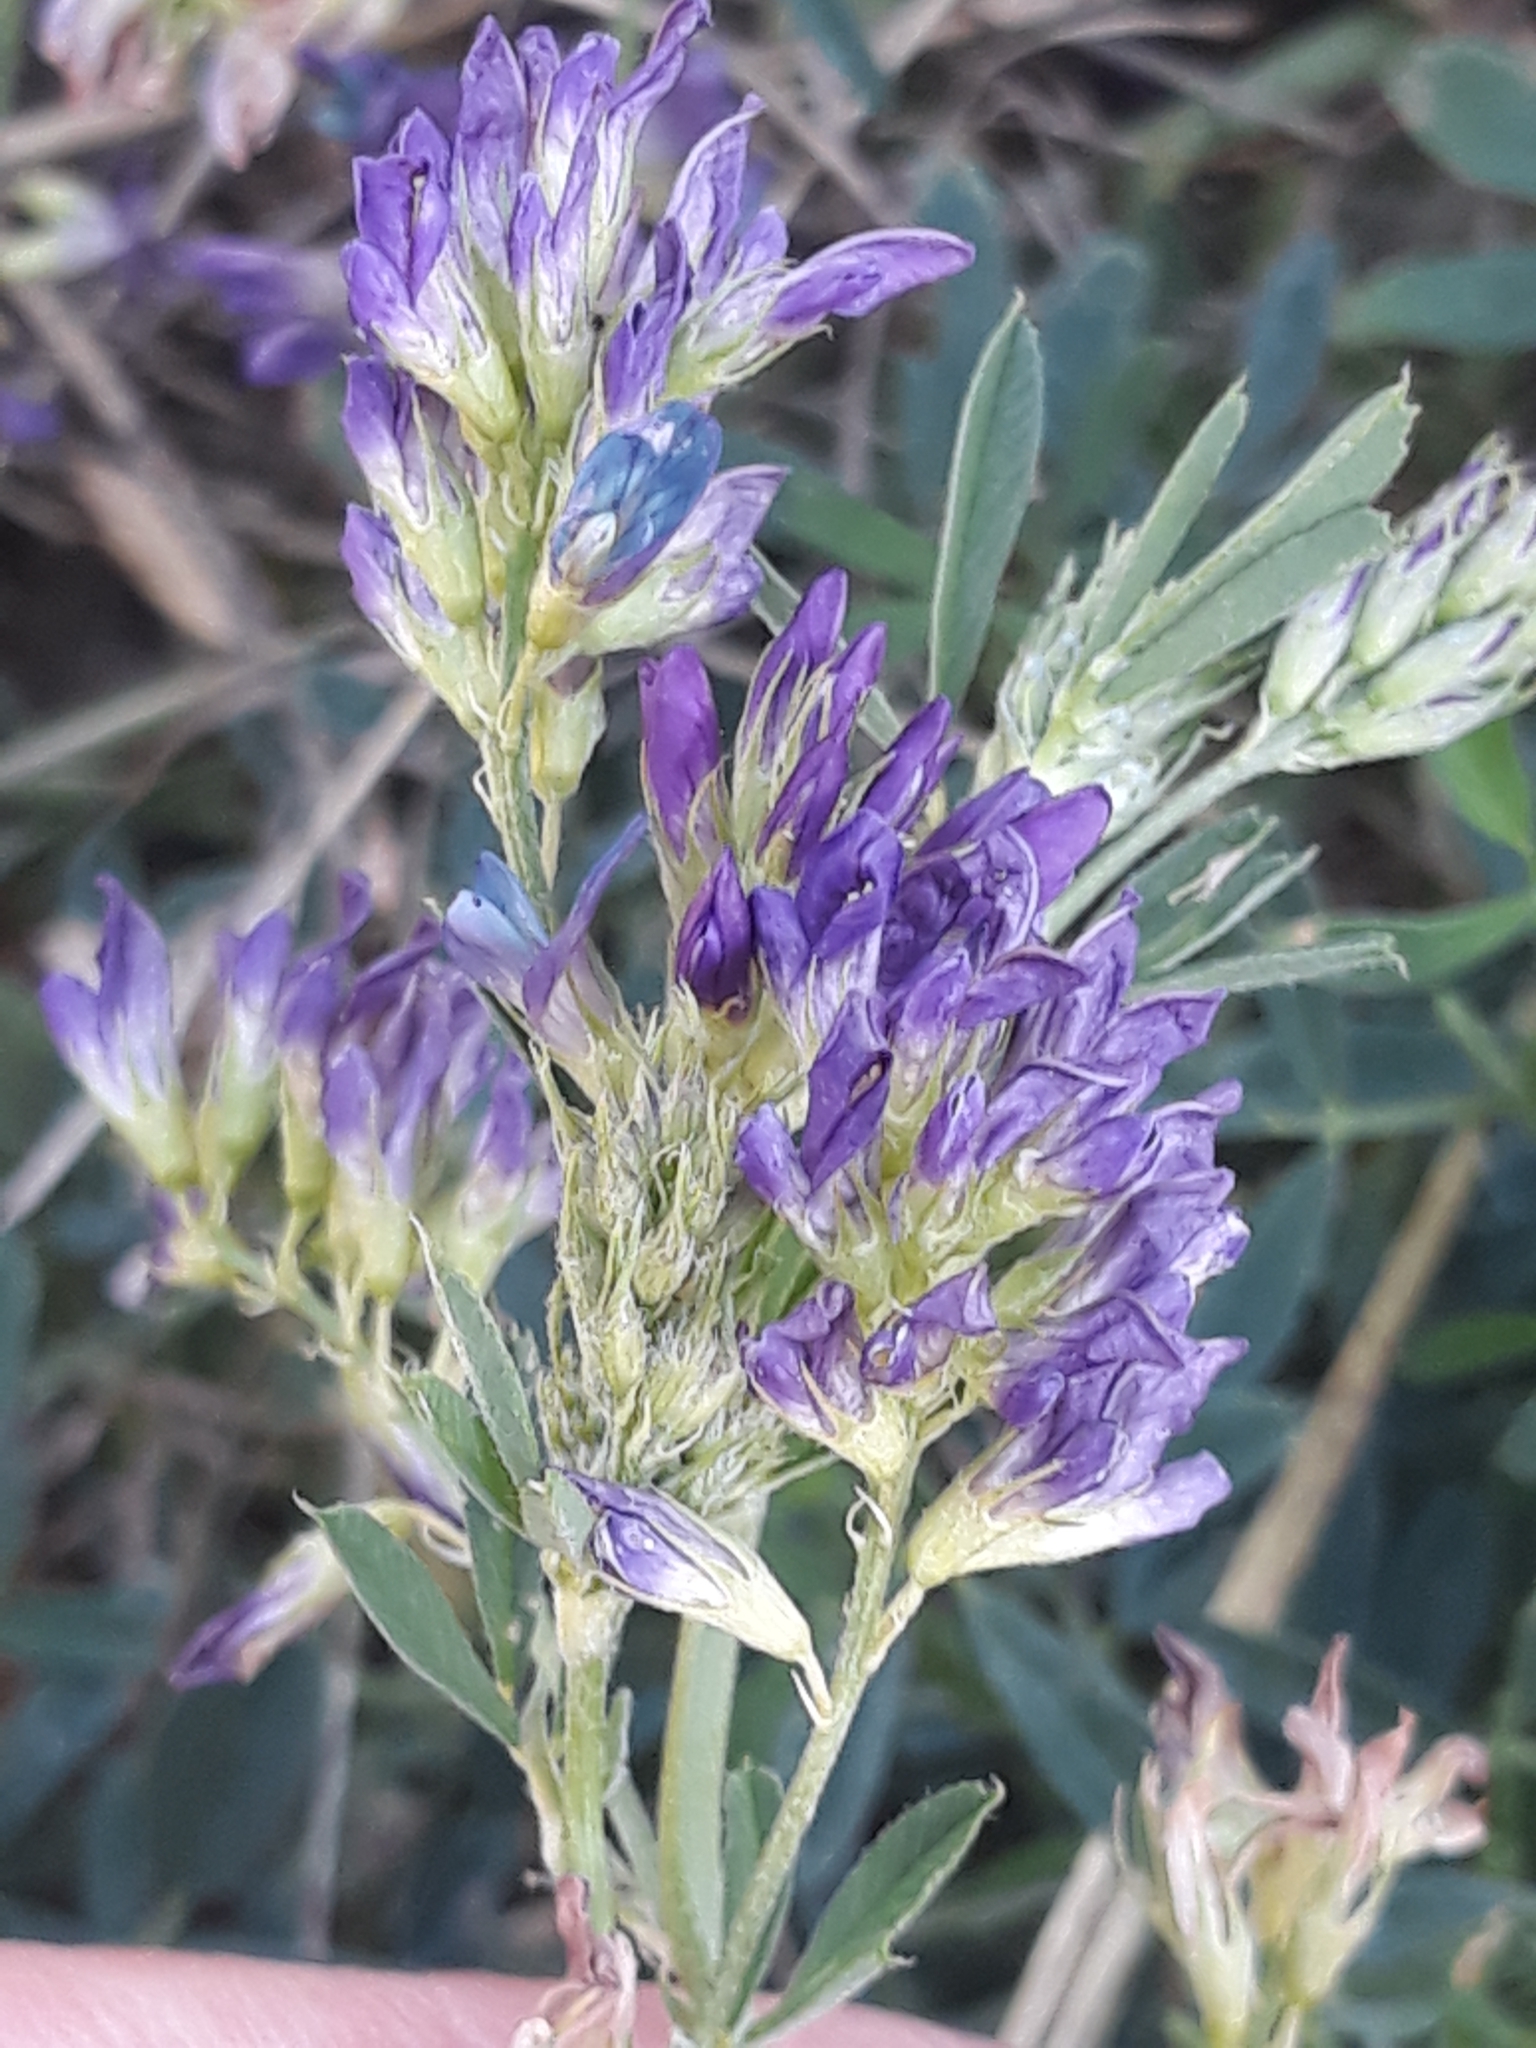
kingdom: Plantae
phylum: Tracheophyta
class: Magnoliopsida
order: Fabales
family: Fabaceae
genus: Medicago
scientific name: Medicago varia
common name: Sand lucerne
